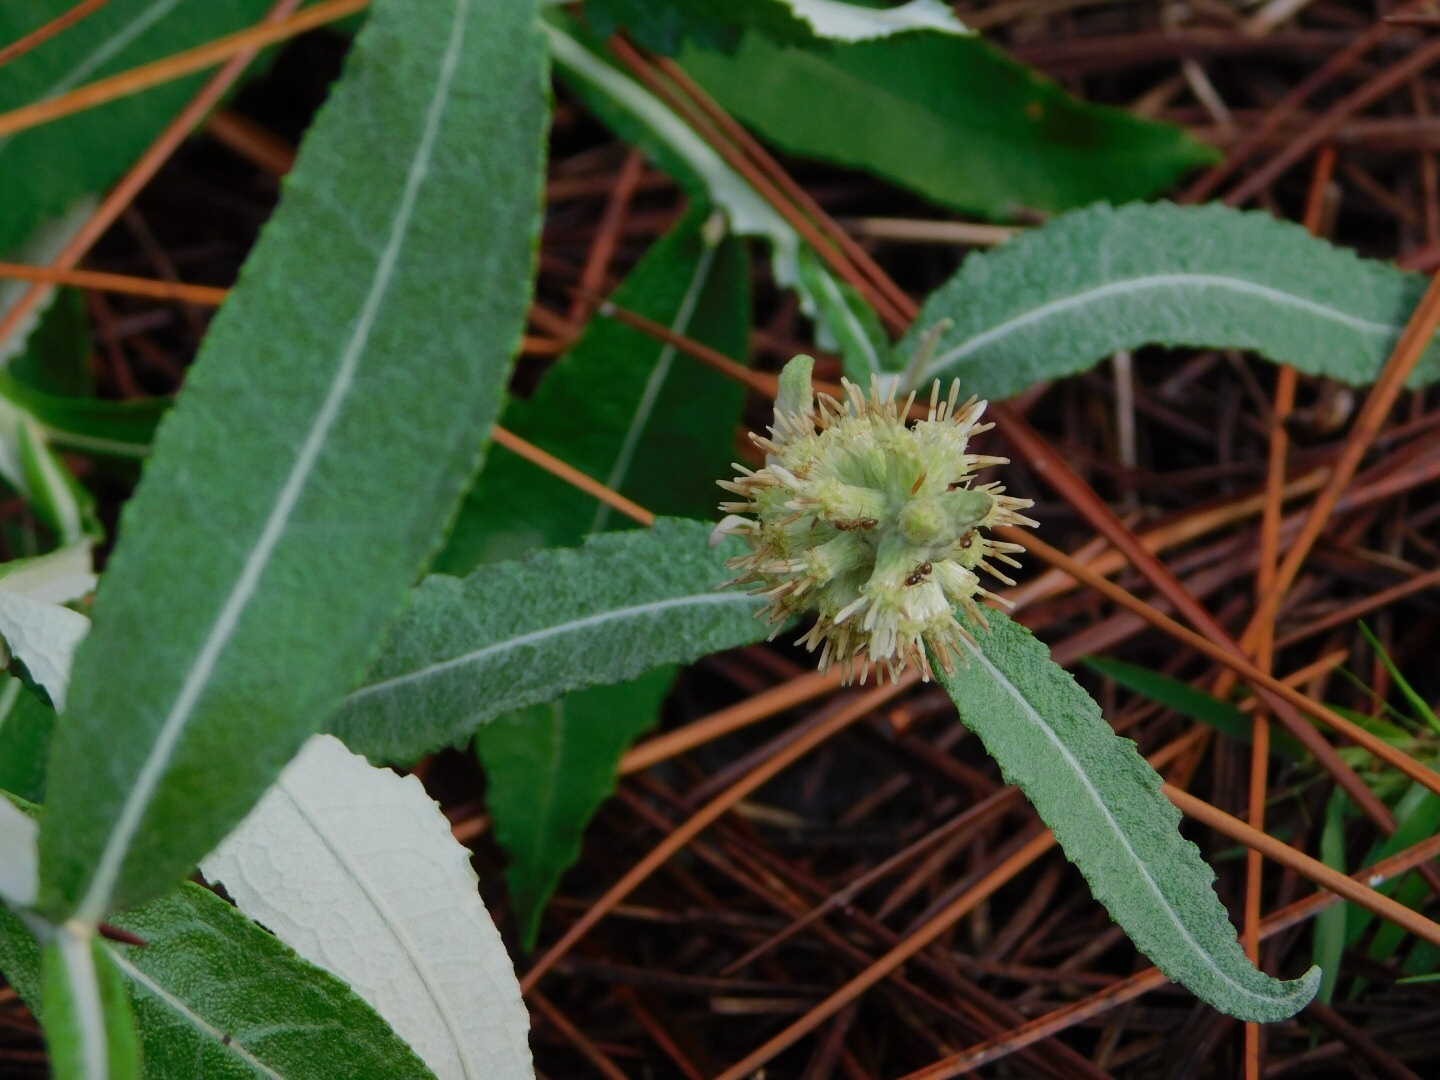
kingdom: Plantae
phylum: Tracheophyta
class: Magnoliopsida
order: Asterales
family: Asteraceae
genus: Pterocaulon
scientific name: Pterocaulon pycnostachyum
